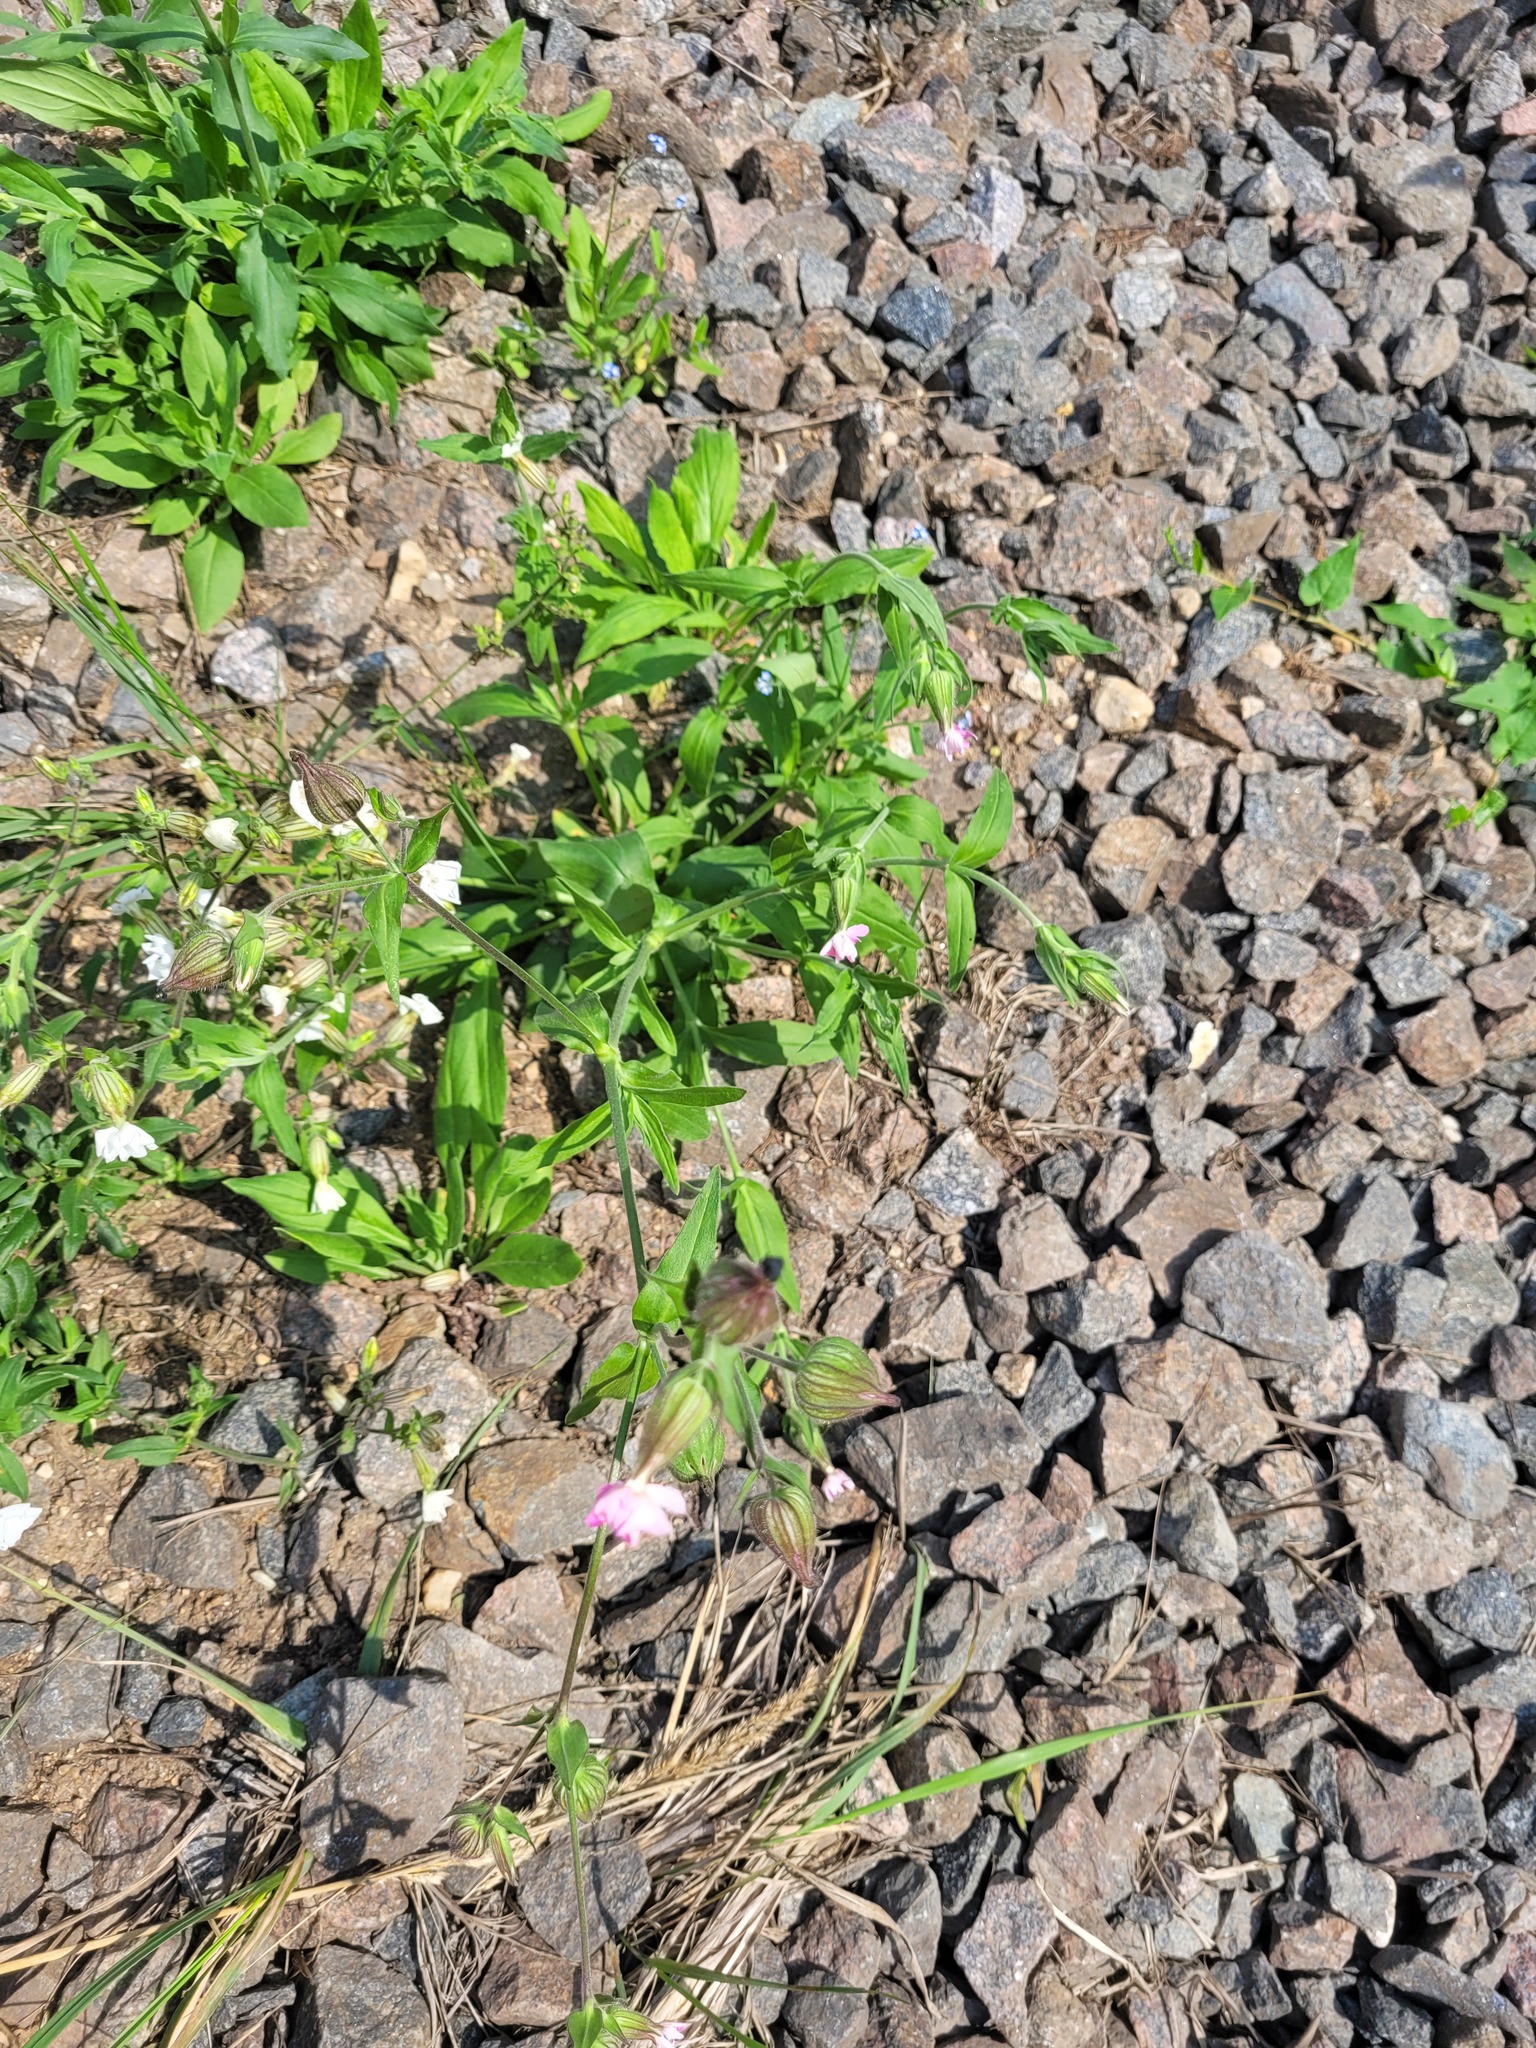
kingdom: Plantae
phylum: Tracheophyta
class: Magnoliopsida
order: Caryophyllales
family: Caryophyllaceae
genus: Silene
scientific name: Silene hampeana
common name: Catchfly
